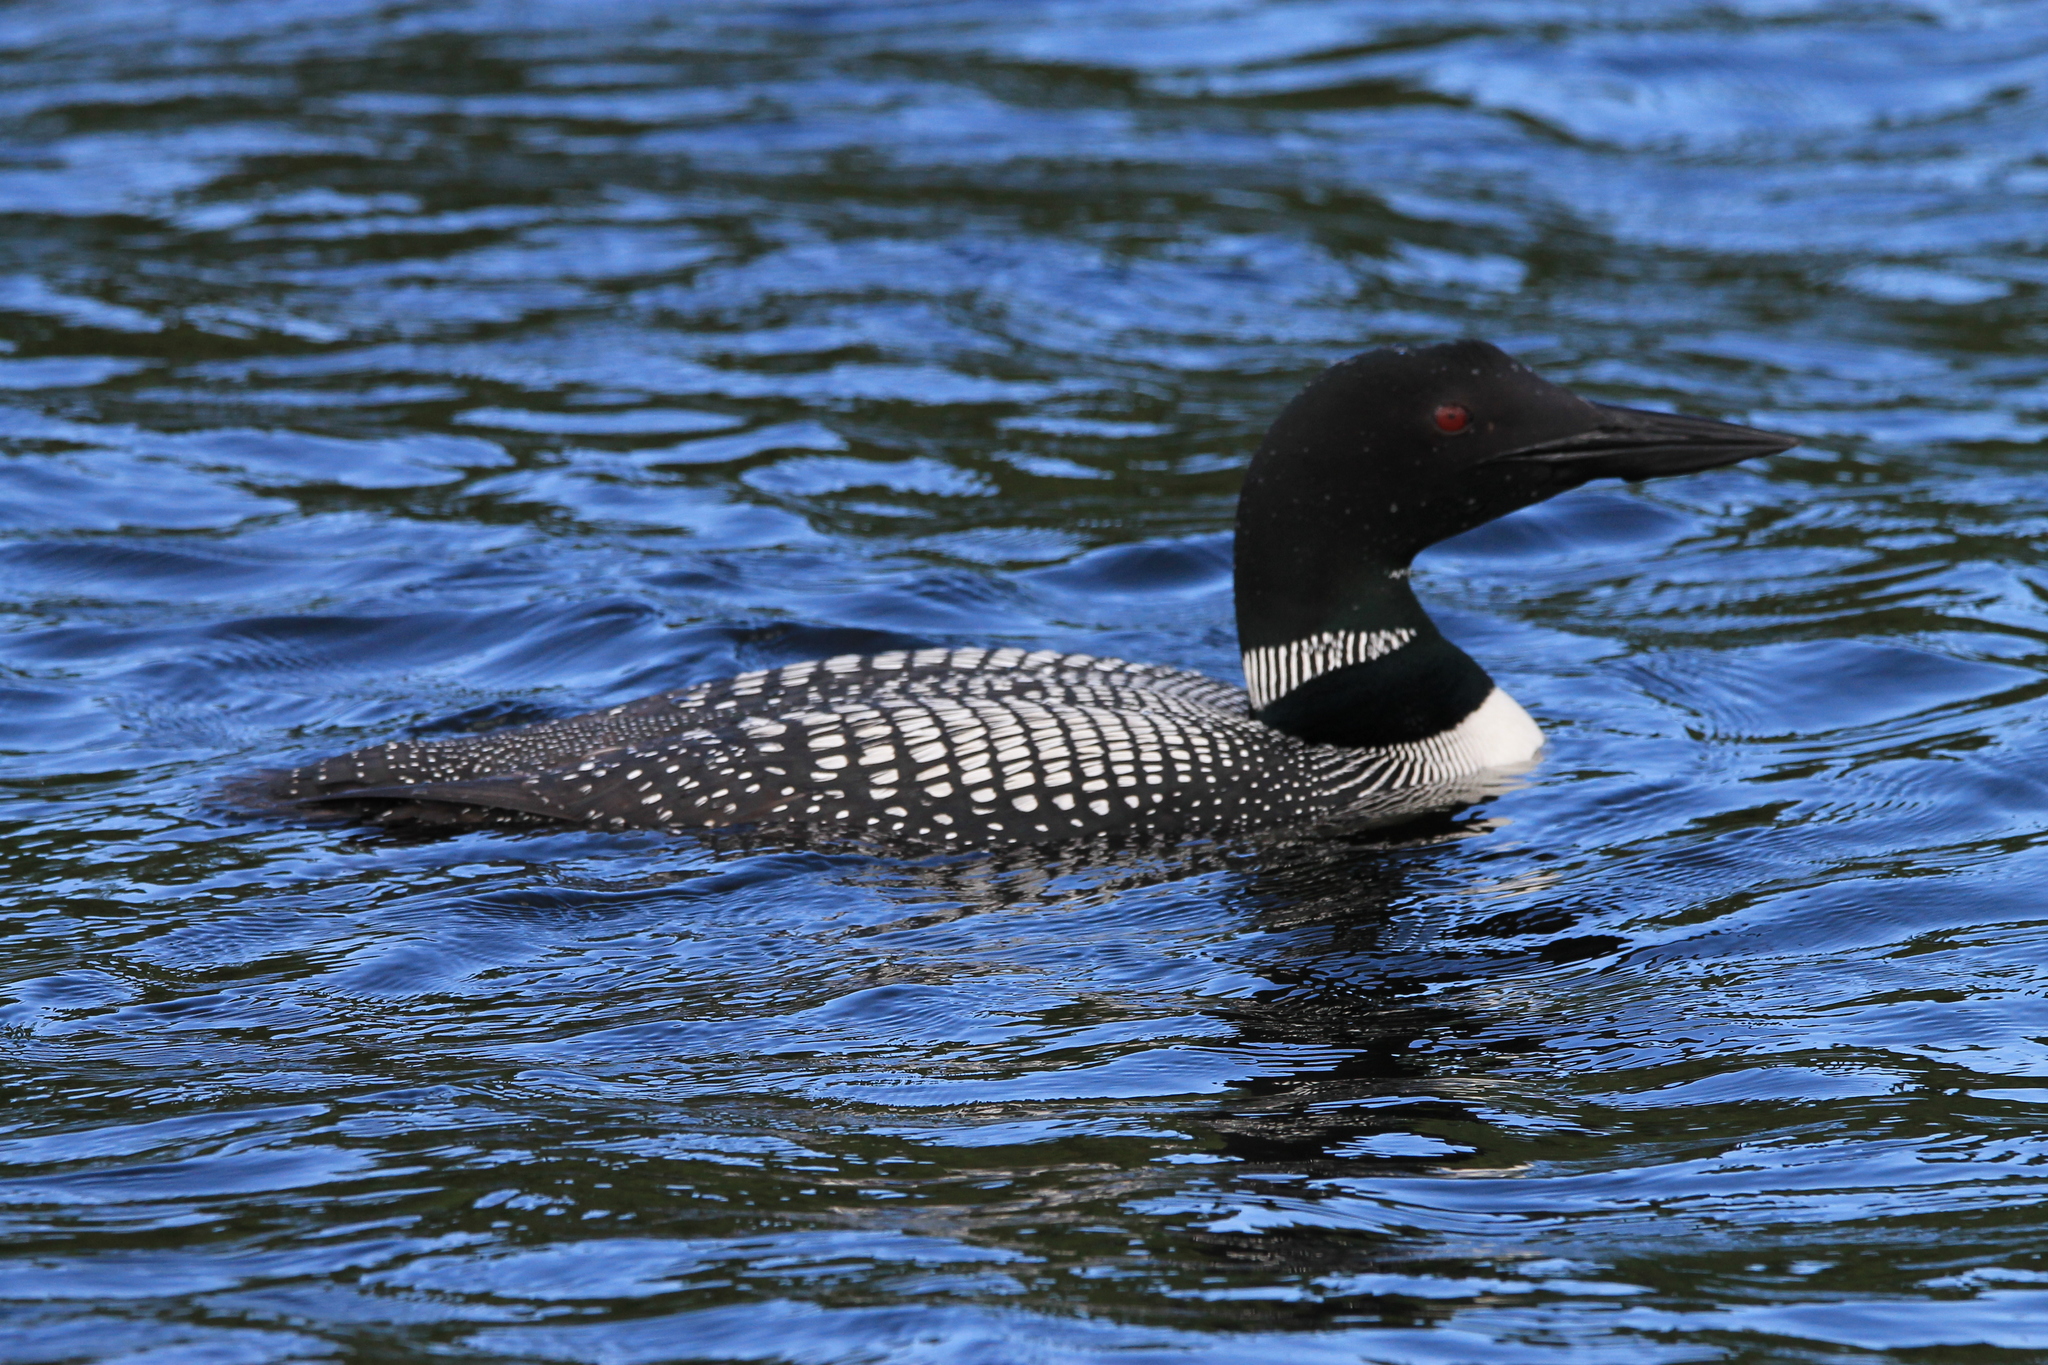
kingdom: Animalia
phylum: Chordata
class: Aves
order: Gaviiformes
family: Gaviidae
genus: Gavia
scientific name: Gavia immer
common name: Common loon
